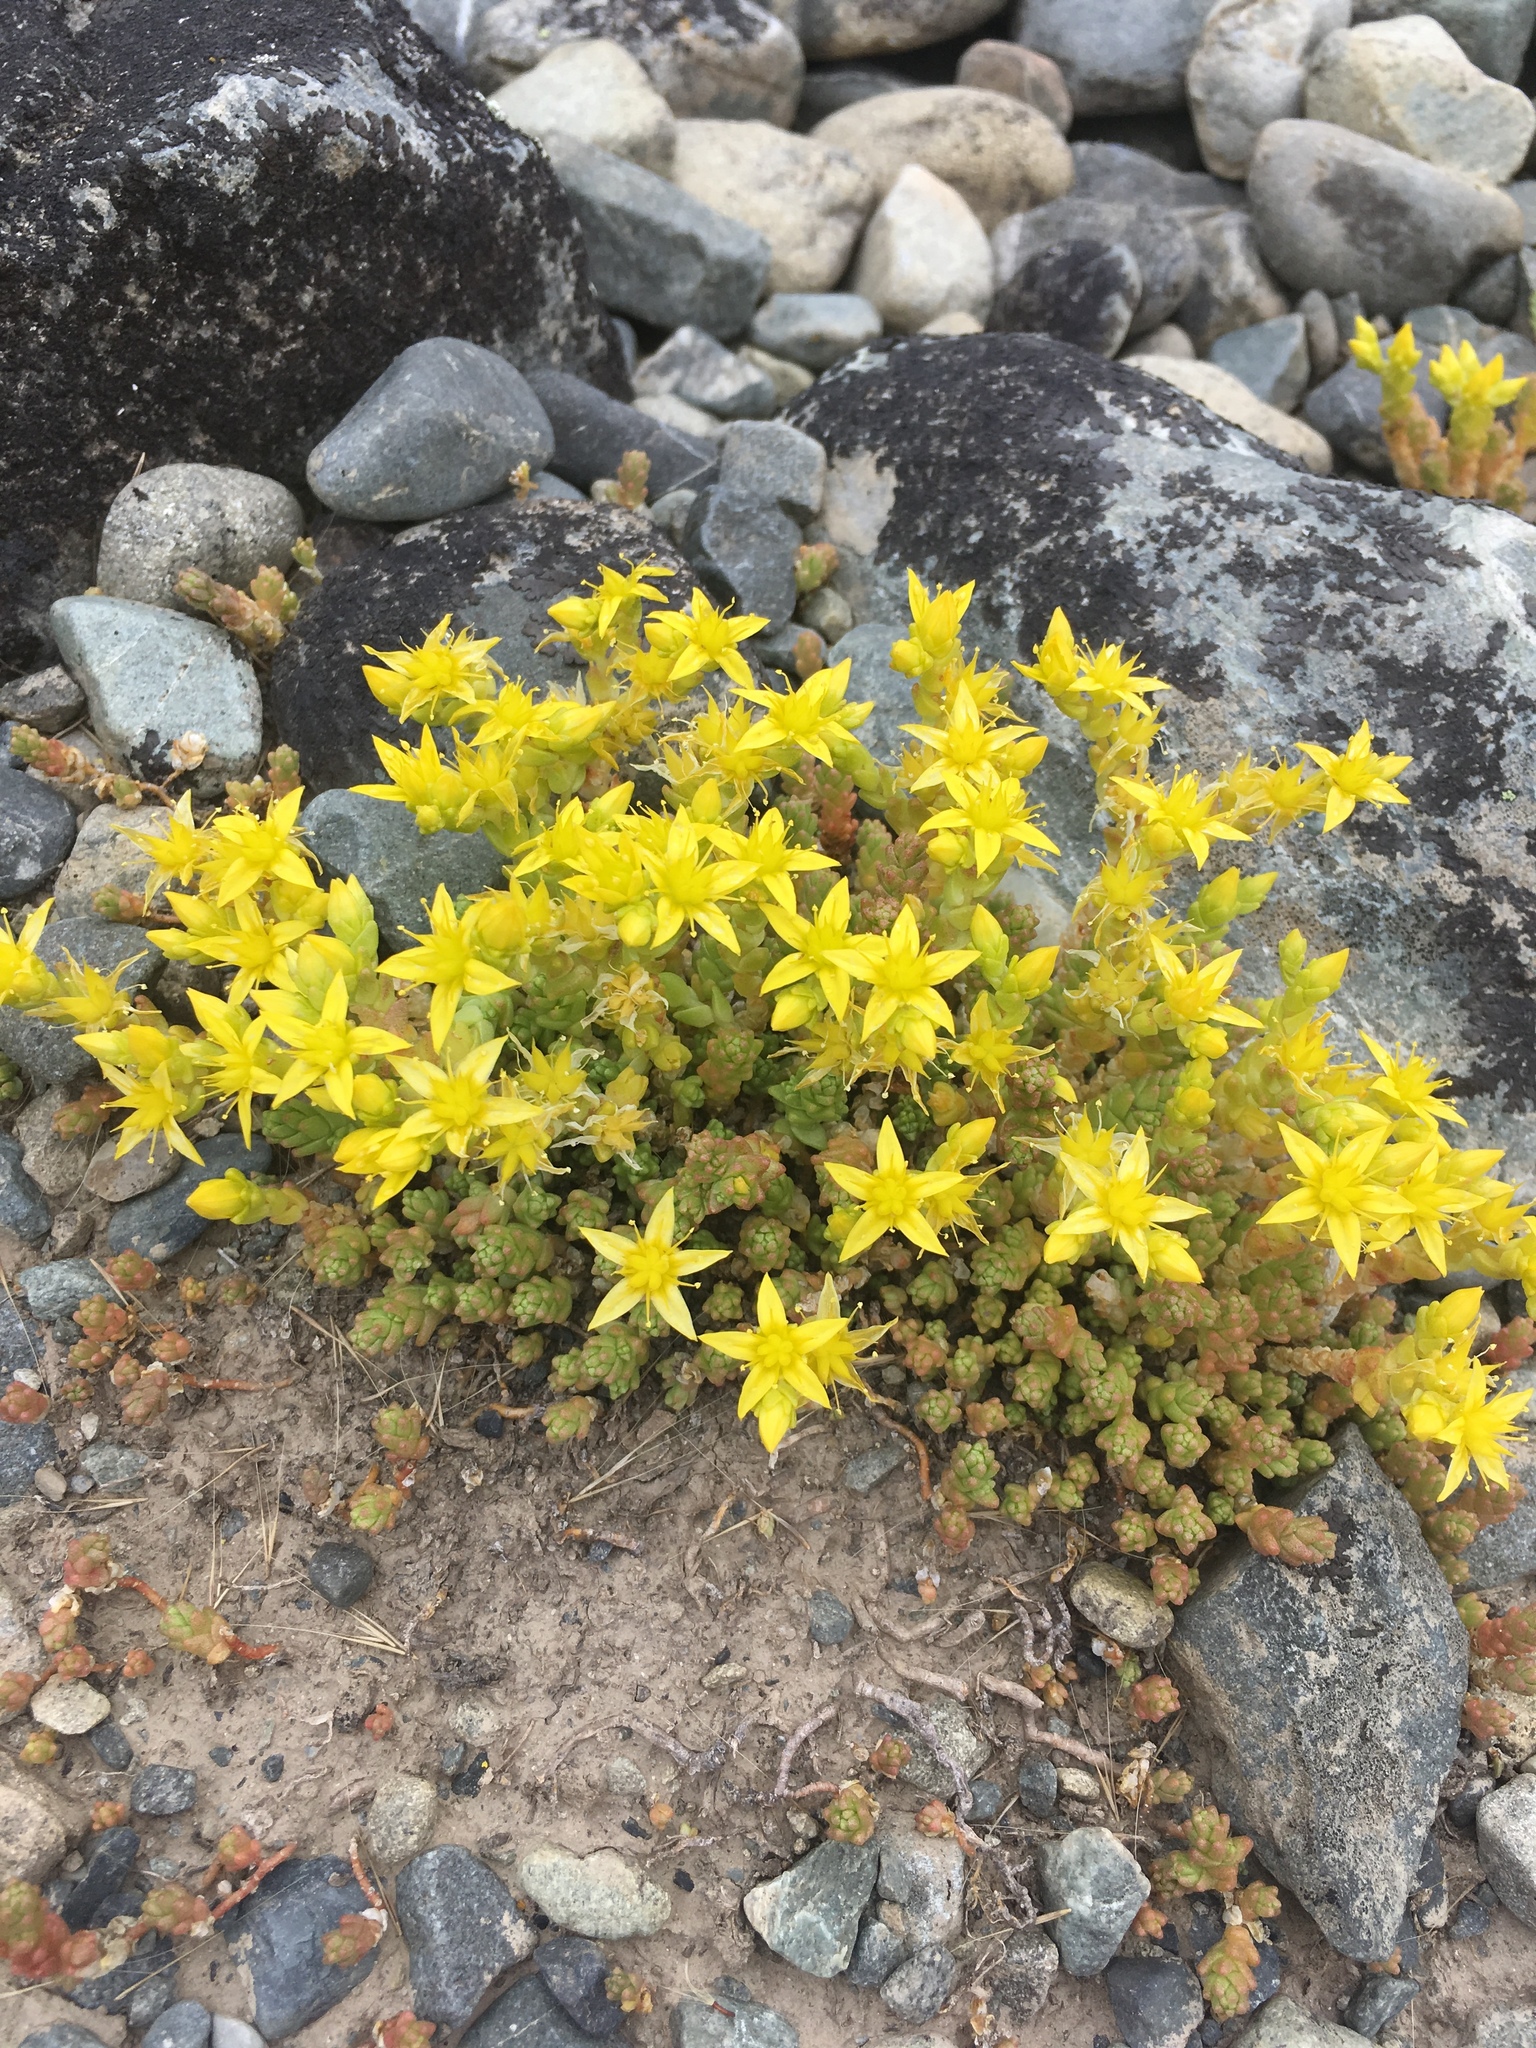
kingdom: Plantae
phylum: Tracheophyta
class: Magnoliopsida
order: Saxifragales
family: Crassulaceae
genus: Sedum
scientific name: Sedum acre
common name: Biting stonecrop
